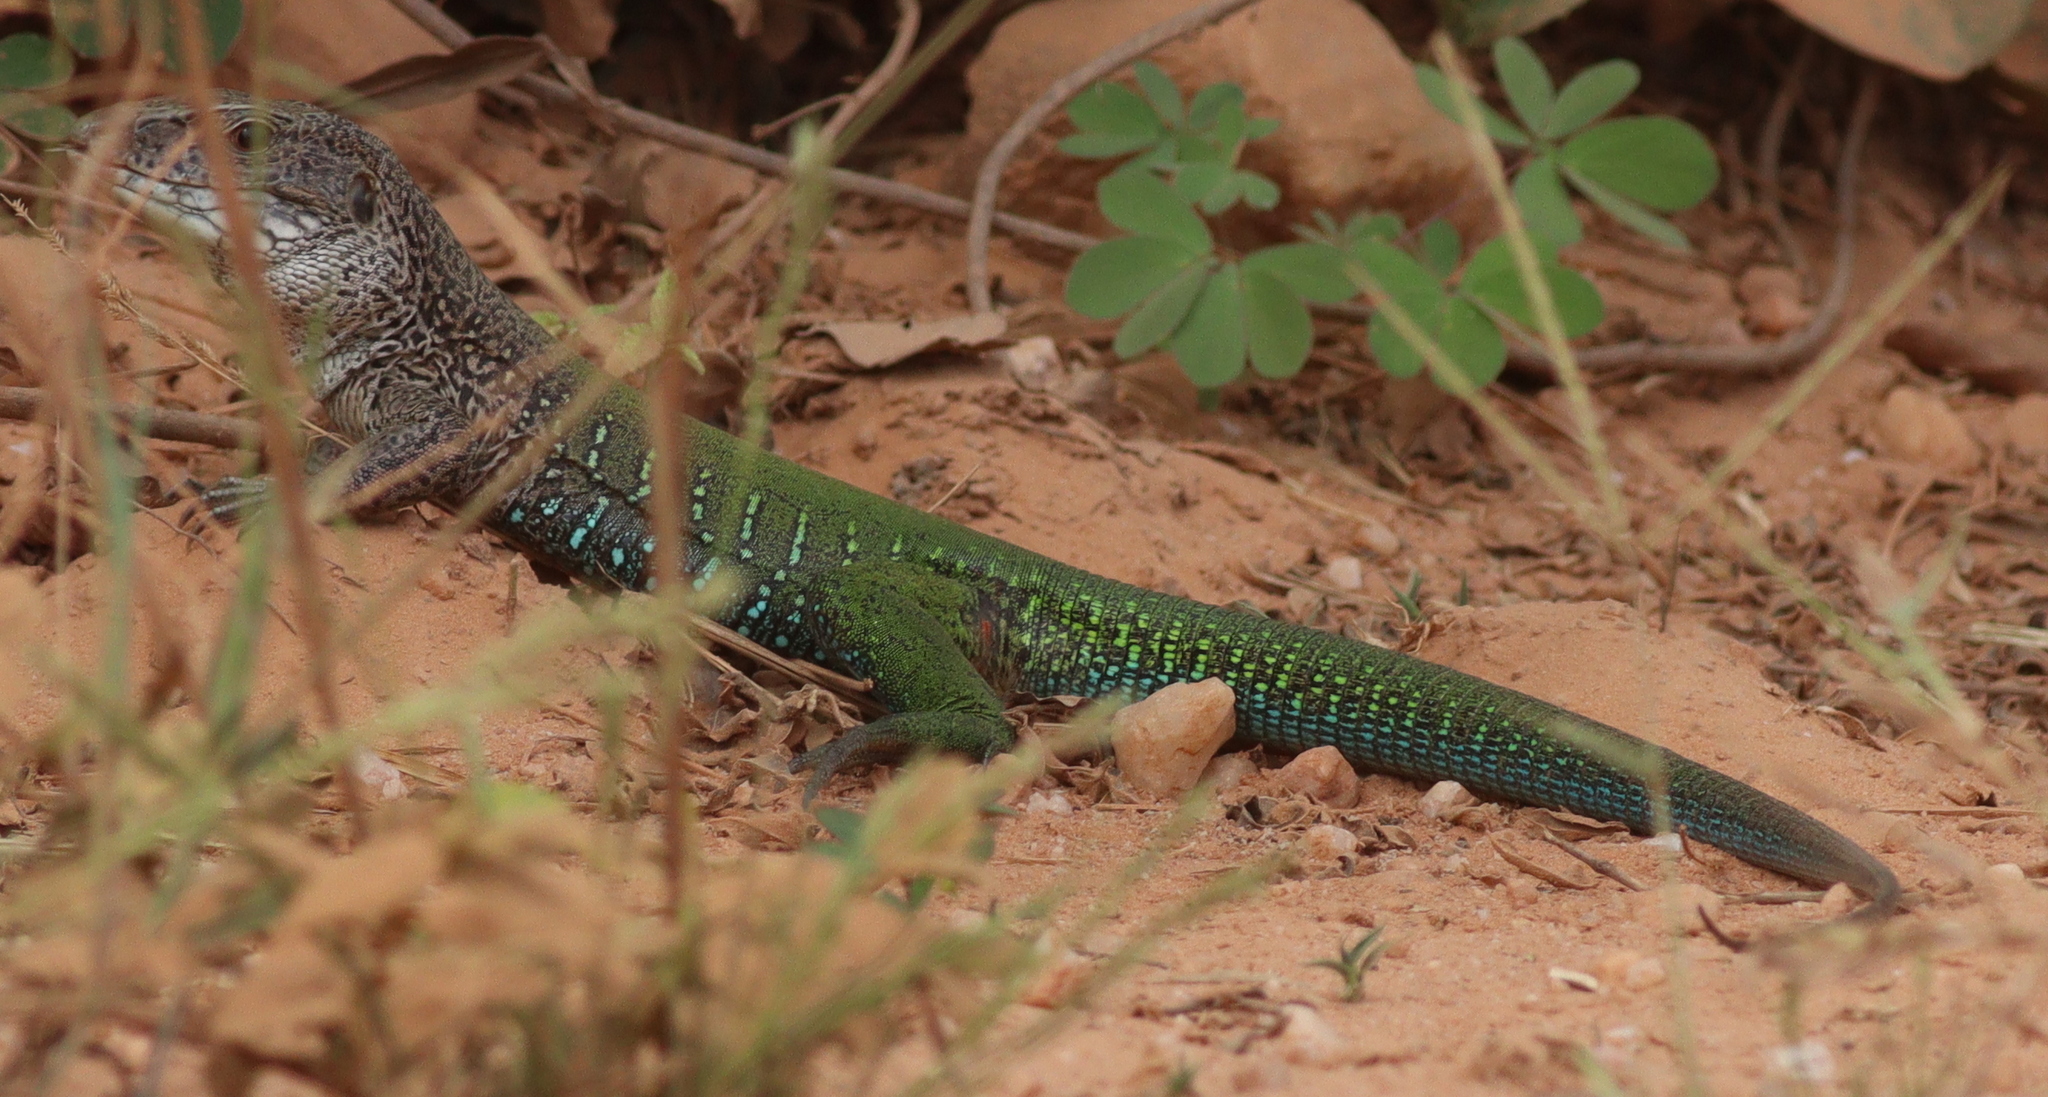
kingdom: Animalia
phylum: Chordata
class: Squamata
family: Teiidae
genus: Ameiva
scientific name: Ameiva ameiva
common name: Giant ameiva
